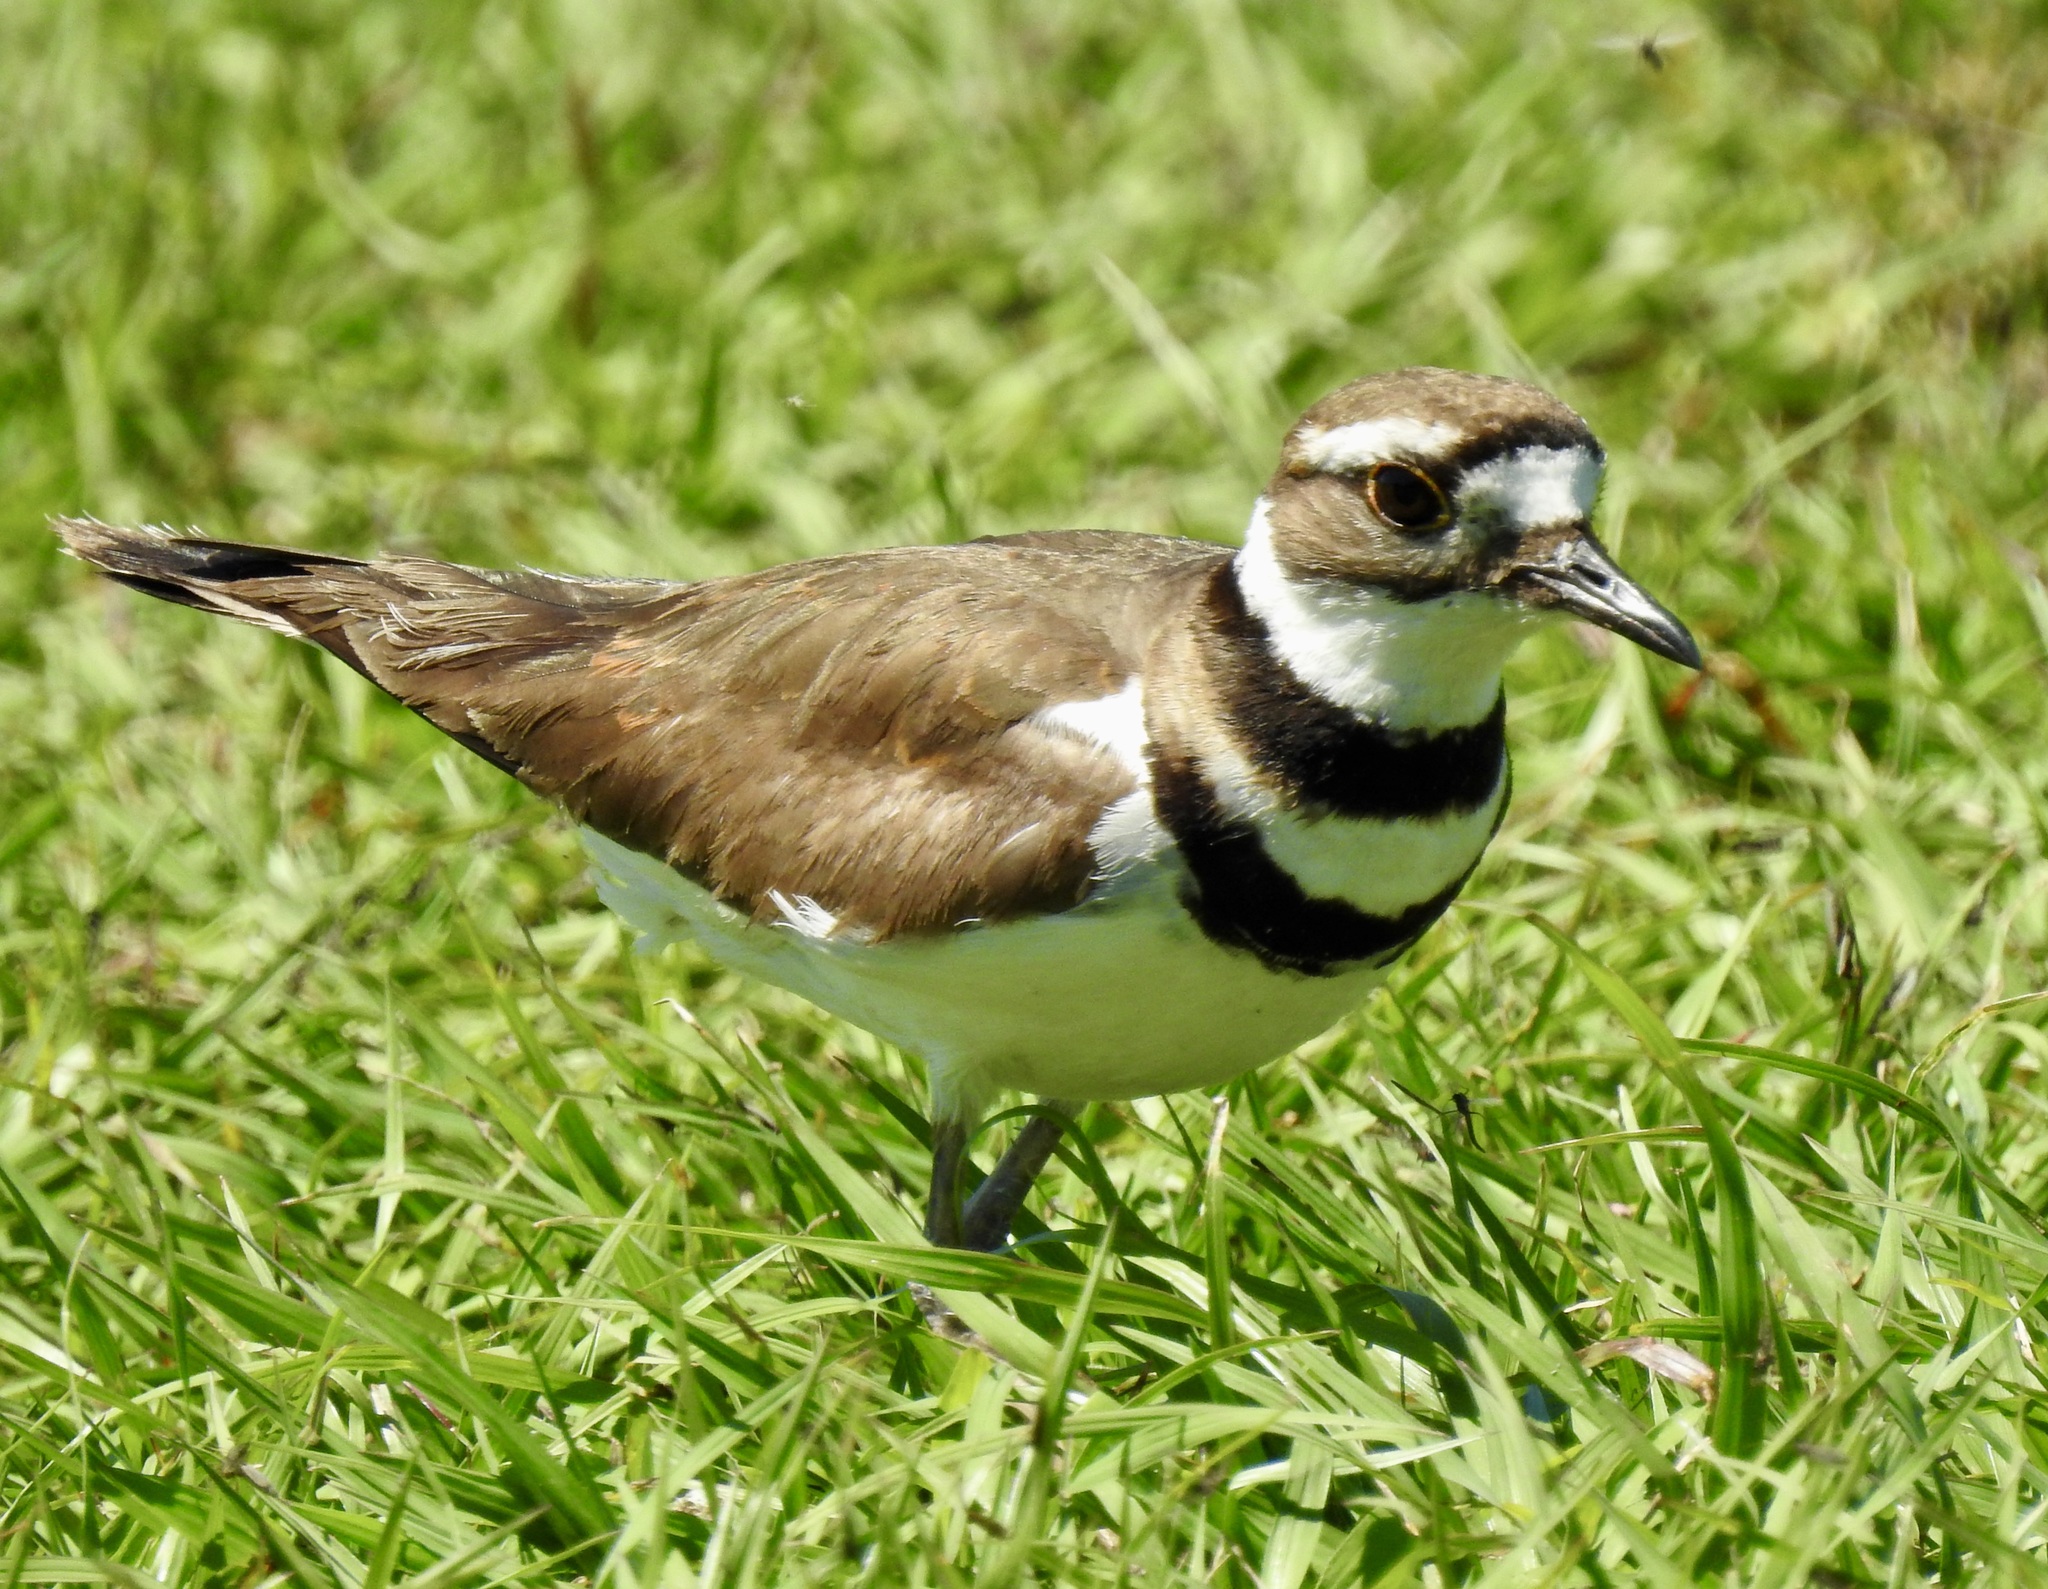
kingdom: Animalia
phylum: Chordata
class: Aves
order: Charadriiformes
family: Charadriidae
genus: Charadrius
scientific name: Charadrius vociferus
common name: Killdeer
